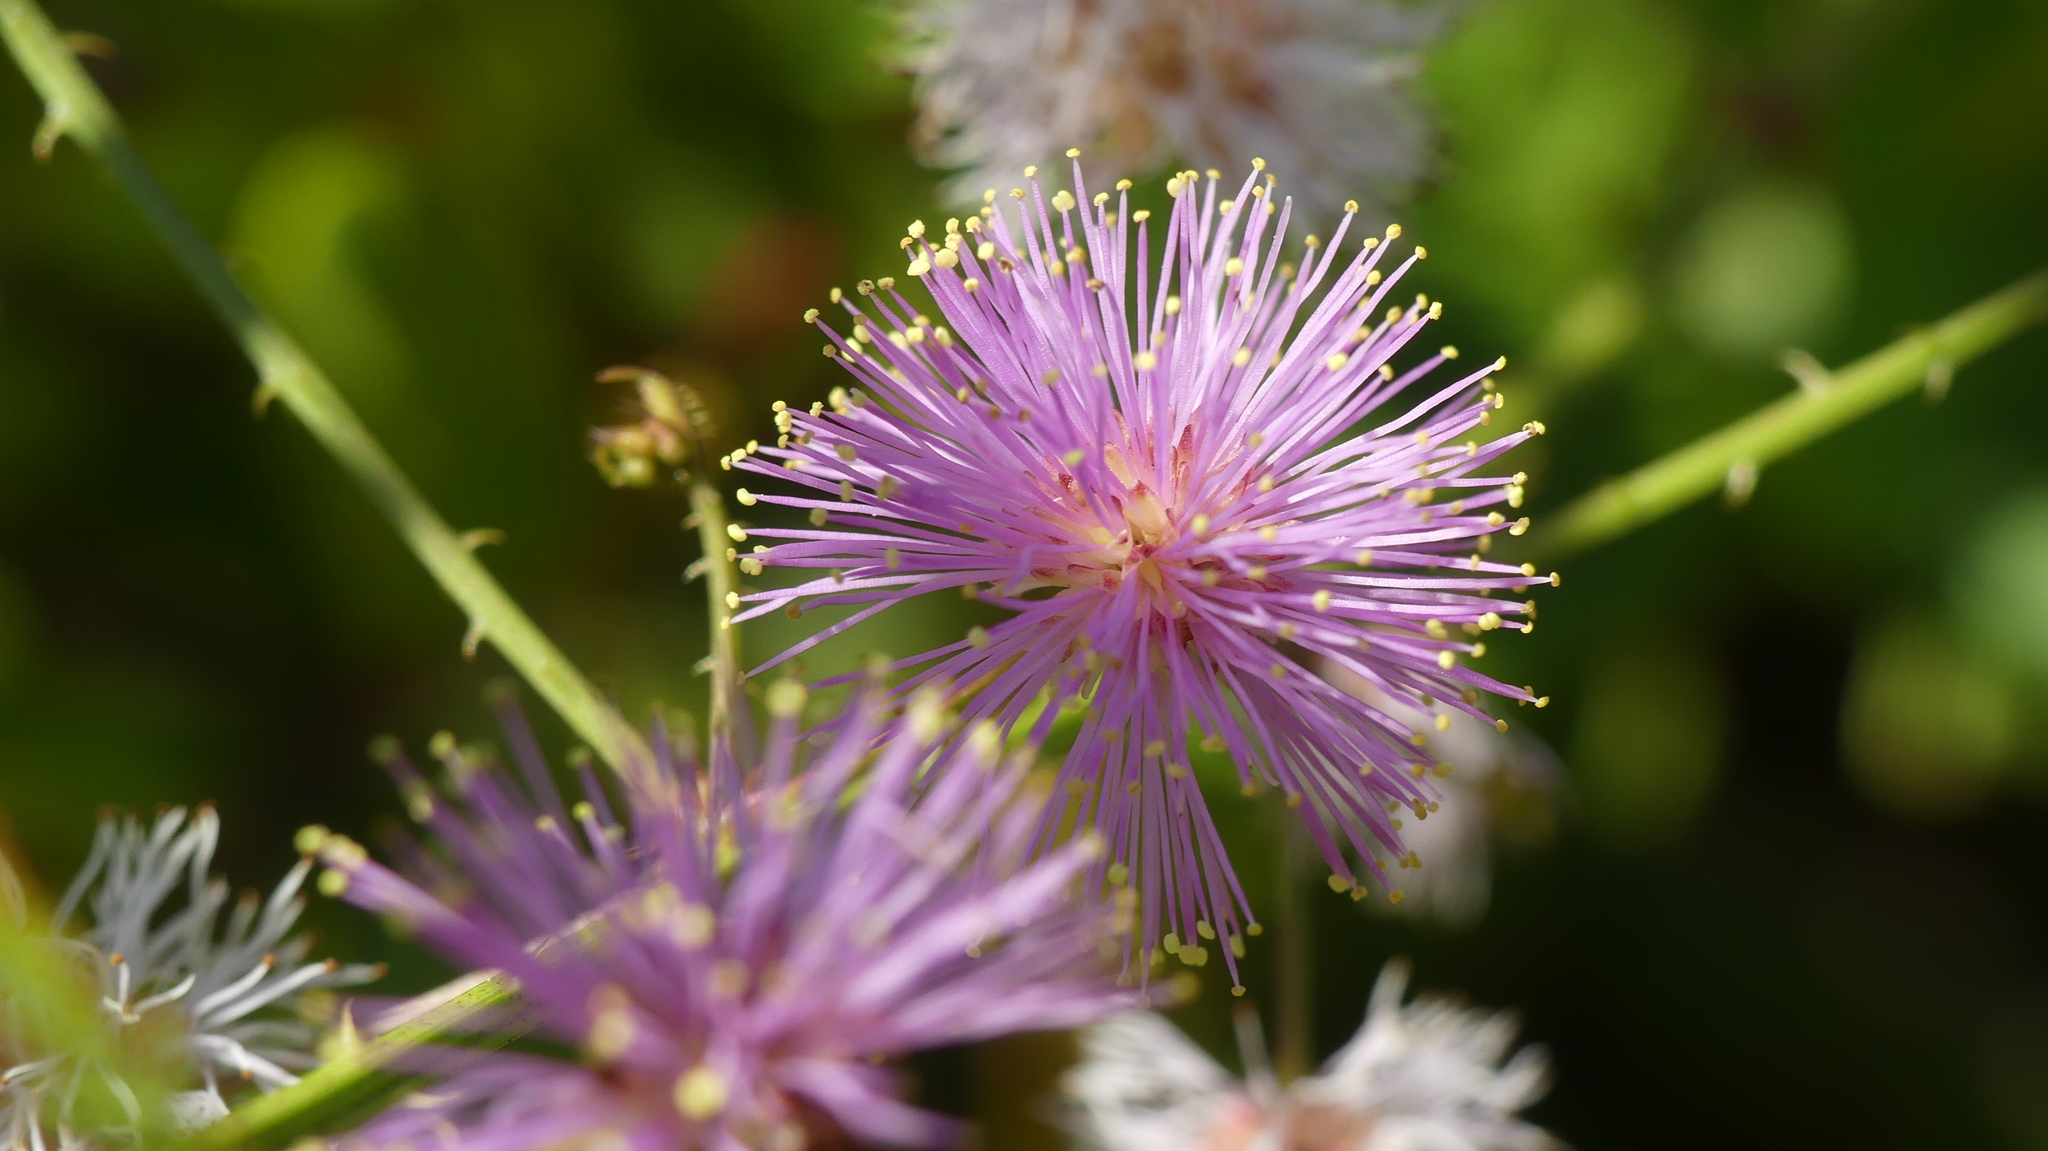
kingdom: Plantae
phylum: Tracheophyta
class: Magnoliopsida
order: Fabales
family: Fabaceae
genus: Mimosa
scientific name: Mimosa quadrivalvis
